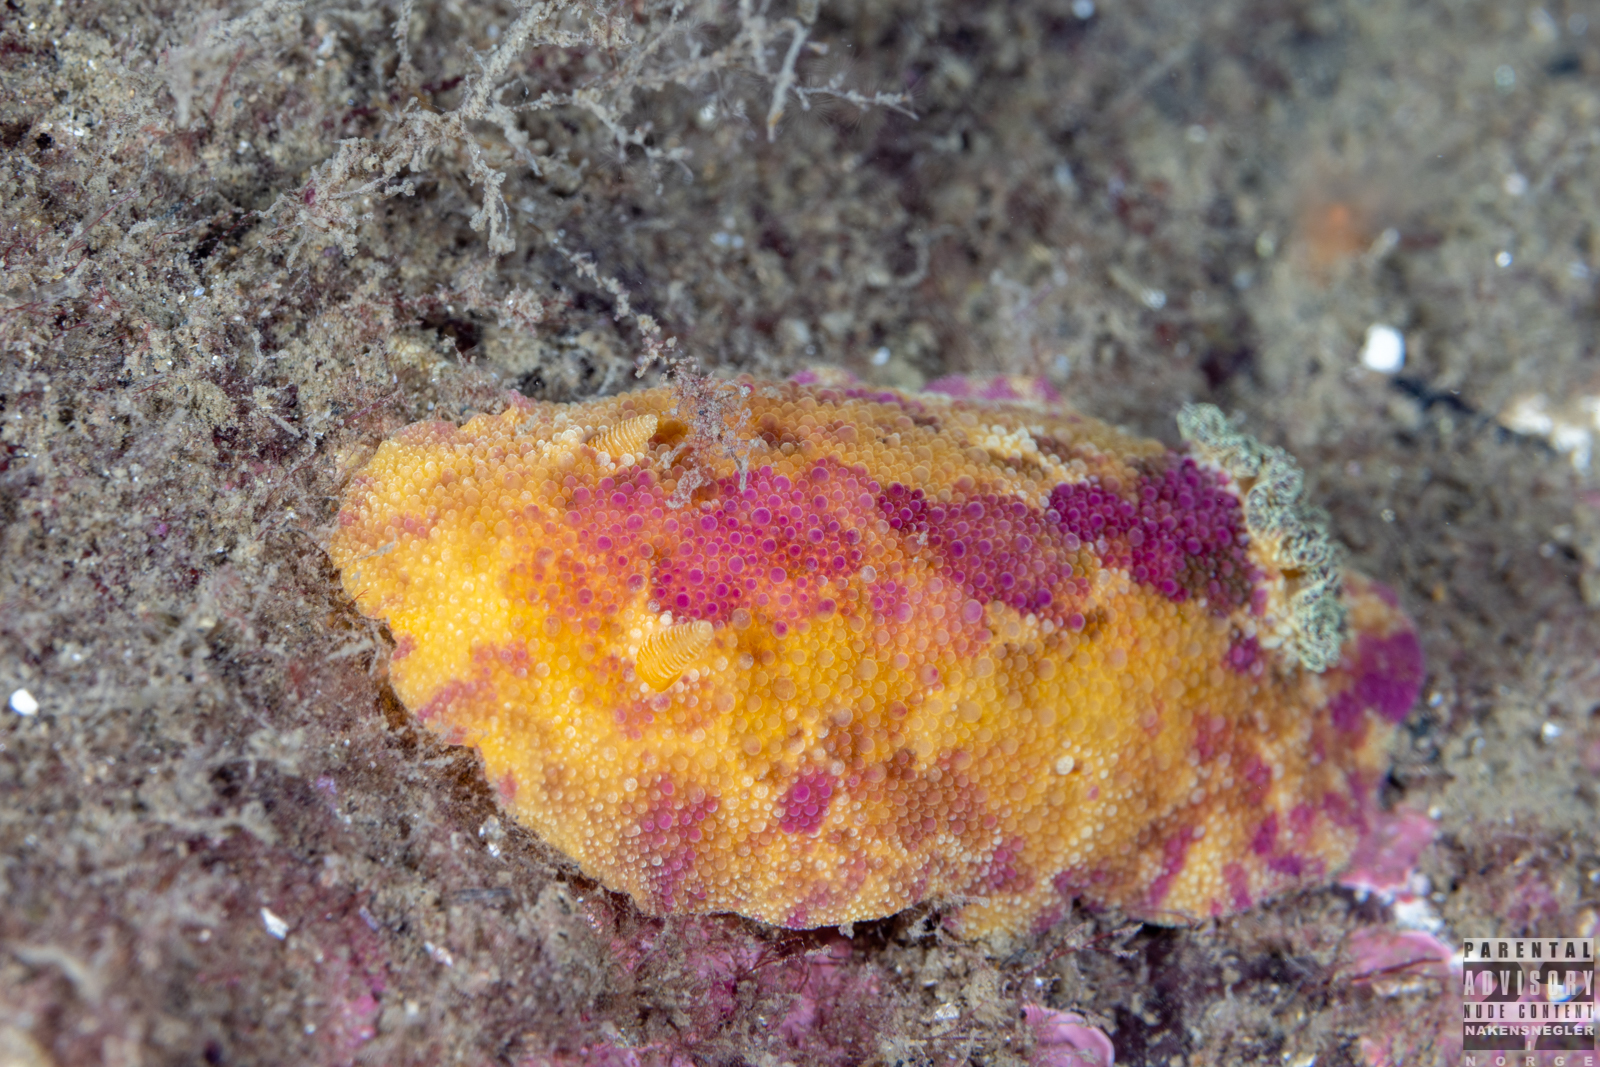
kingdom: Animalia
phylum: Mollusca
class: Gastropoda
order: Nudibranchia
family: Dorididae
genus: Doris
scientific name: Doris pseudoargus
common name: Sea lemon
